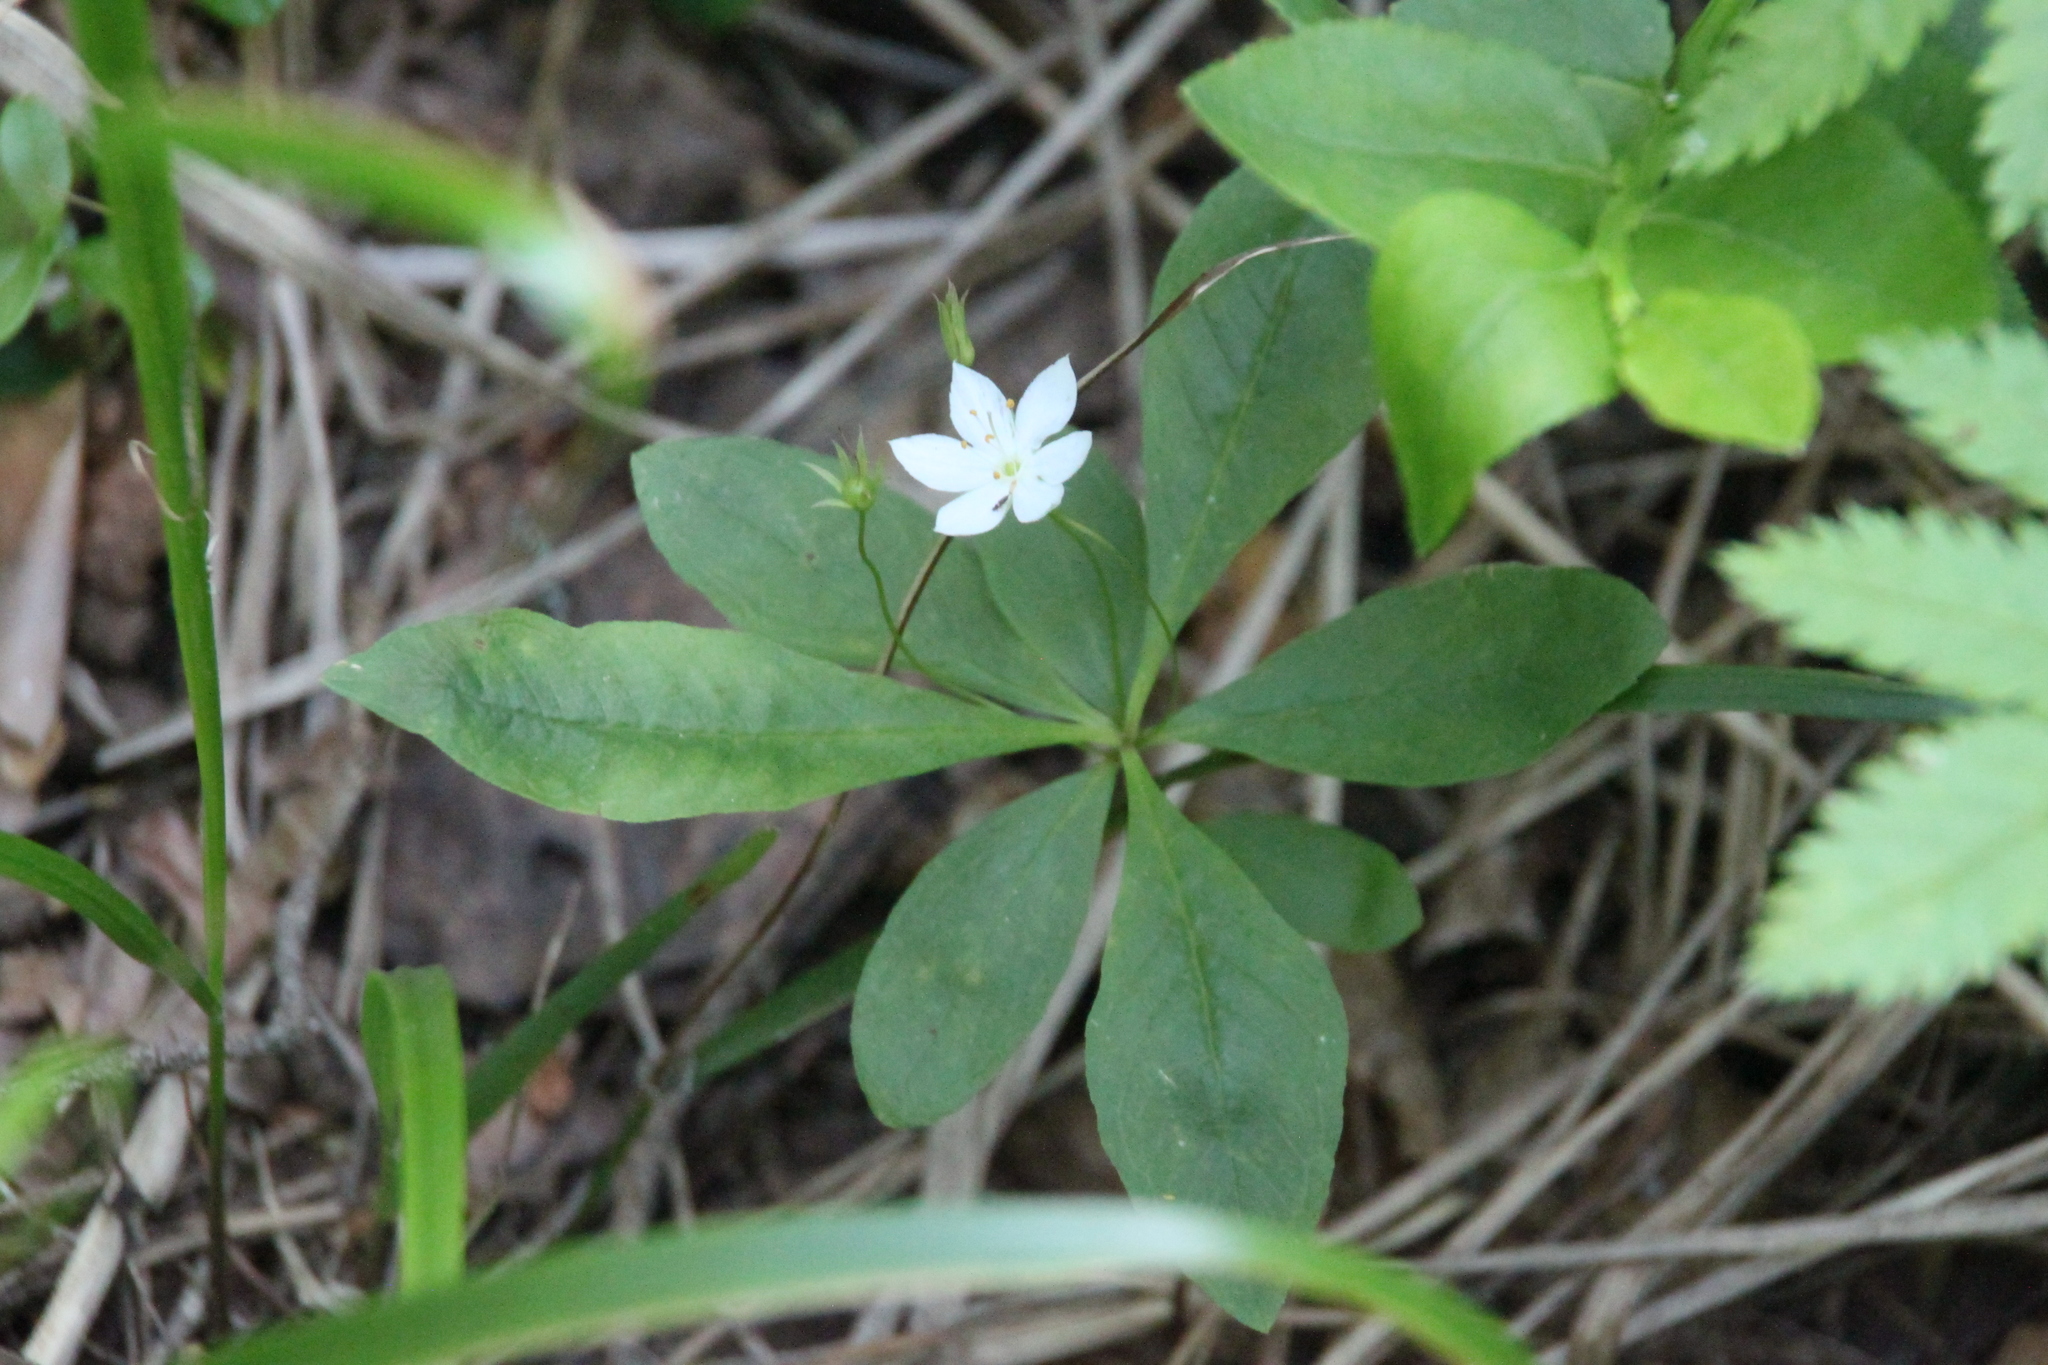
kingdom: Plantae
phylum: Tracheophyta
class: Magnoliopsida
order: Ericales
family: Primulaceae
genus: Lysimachia
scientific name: Lysimachia europaea
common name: Arctic starflower
